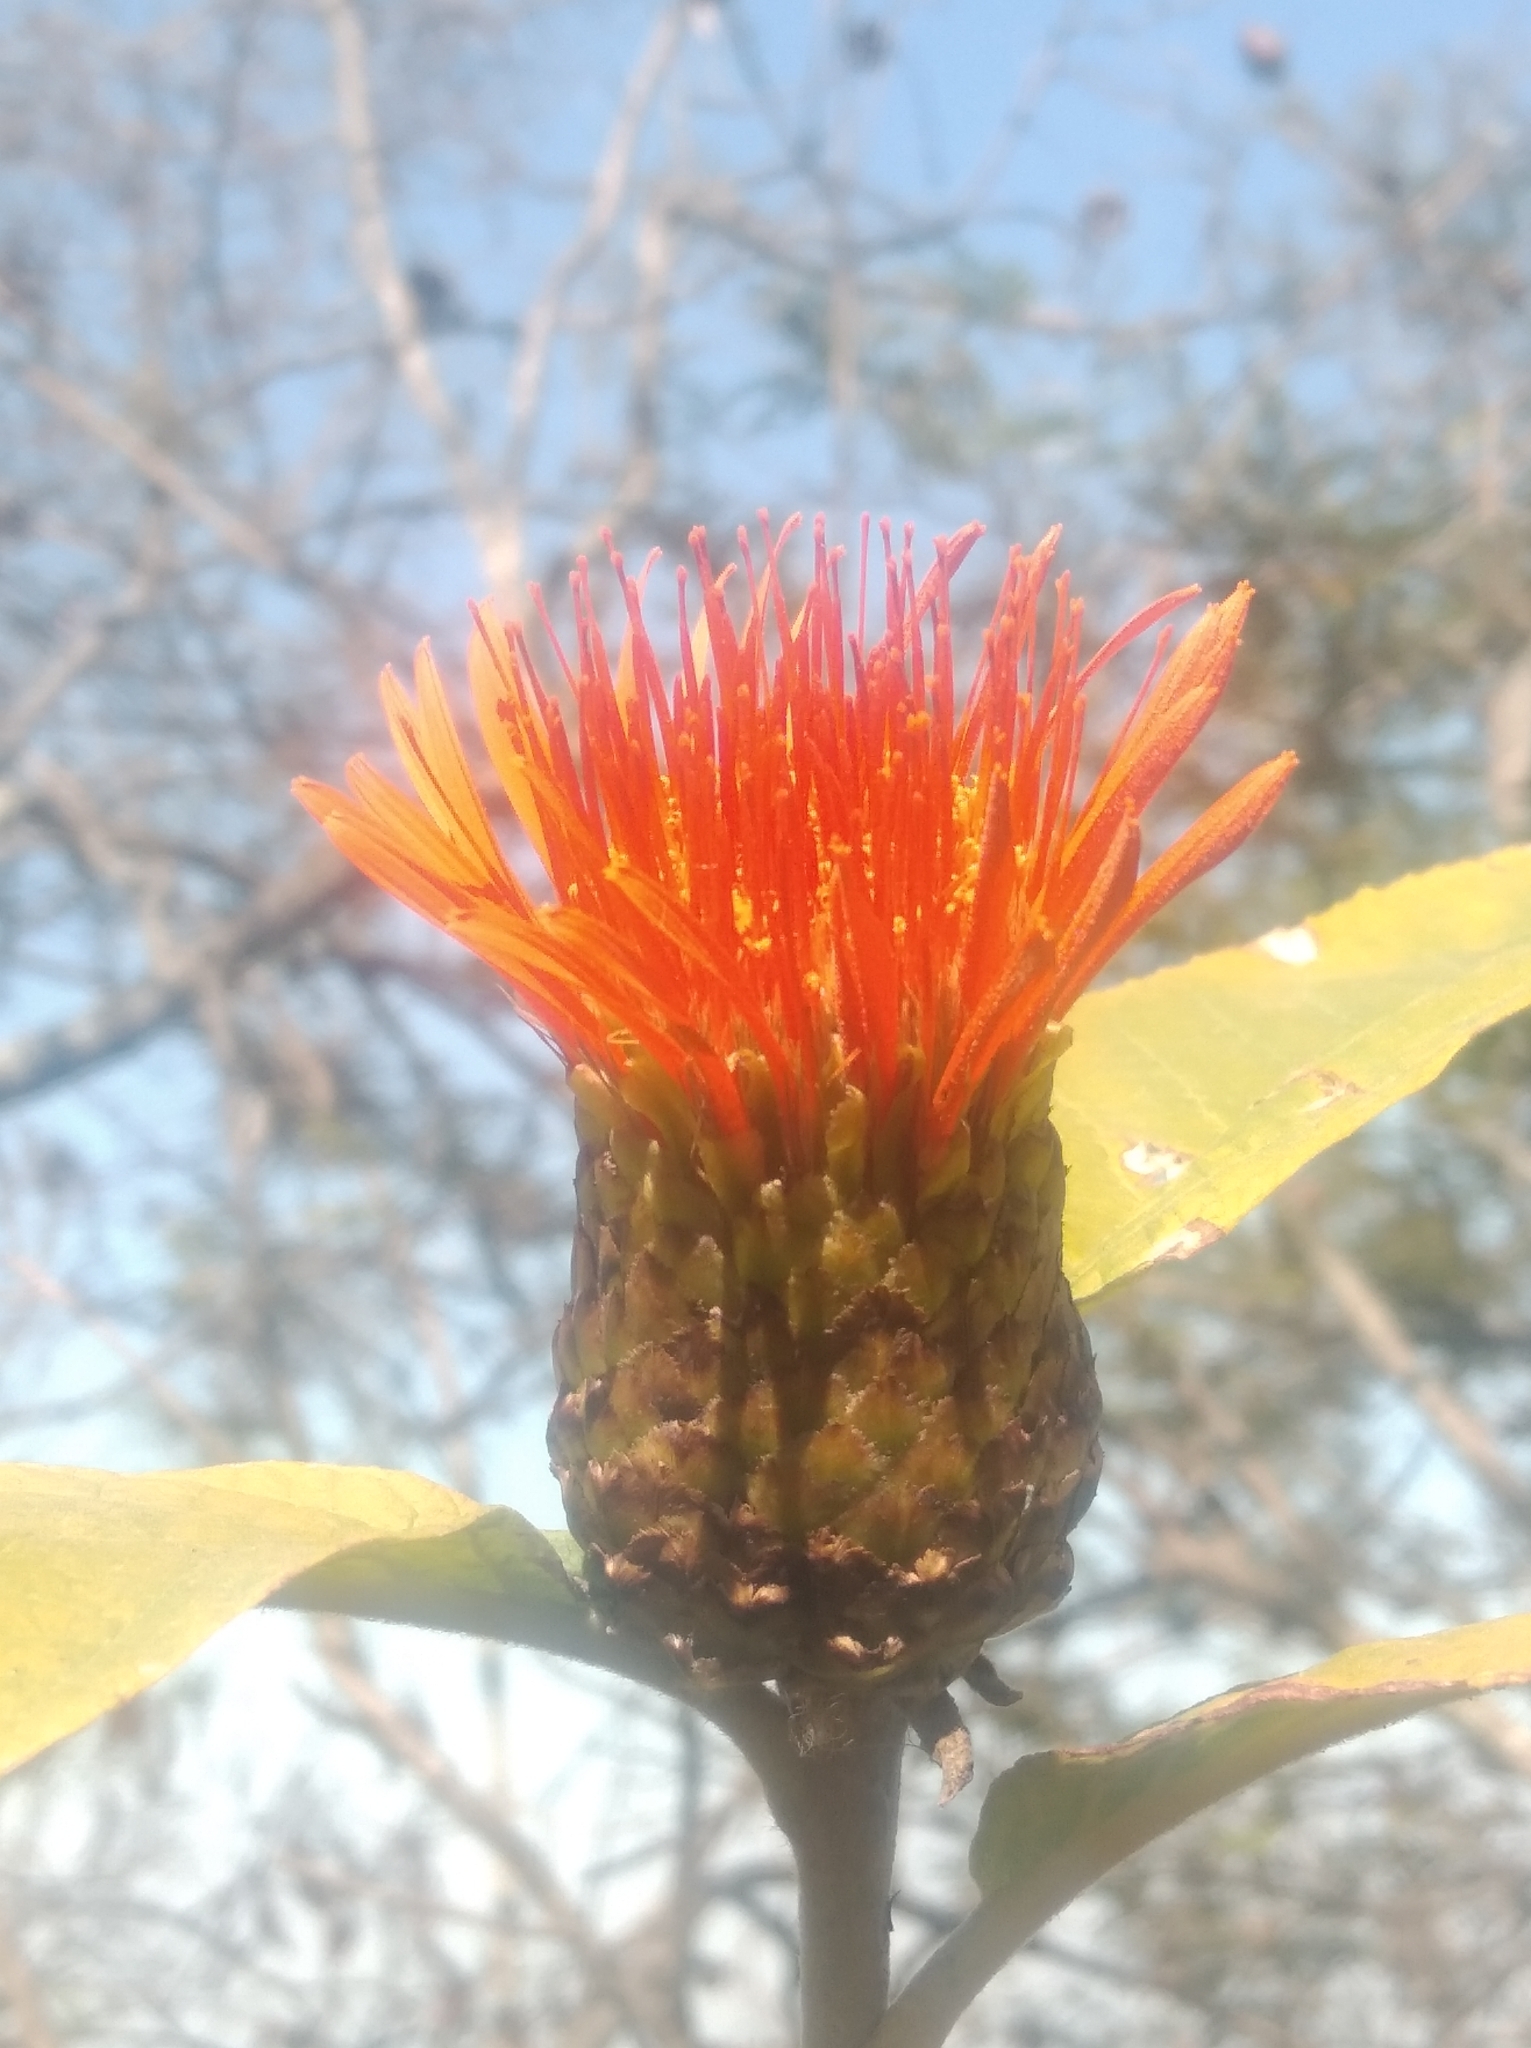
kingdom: Plantae
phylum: Tracheophyta
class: Magnoliopsida
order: Asterales
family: Asteraceae
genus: Cnicothamnus
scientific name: Cnicothamnus lorentzii
